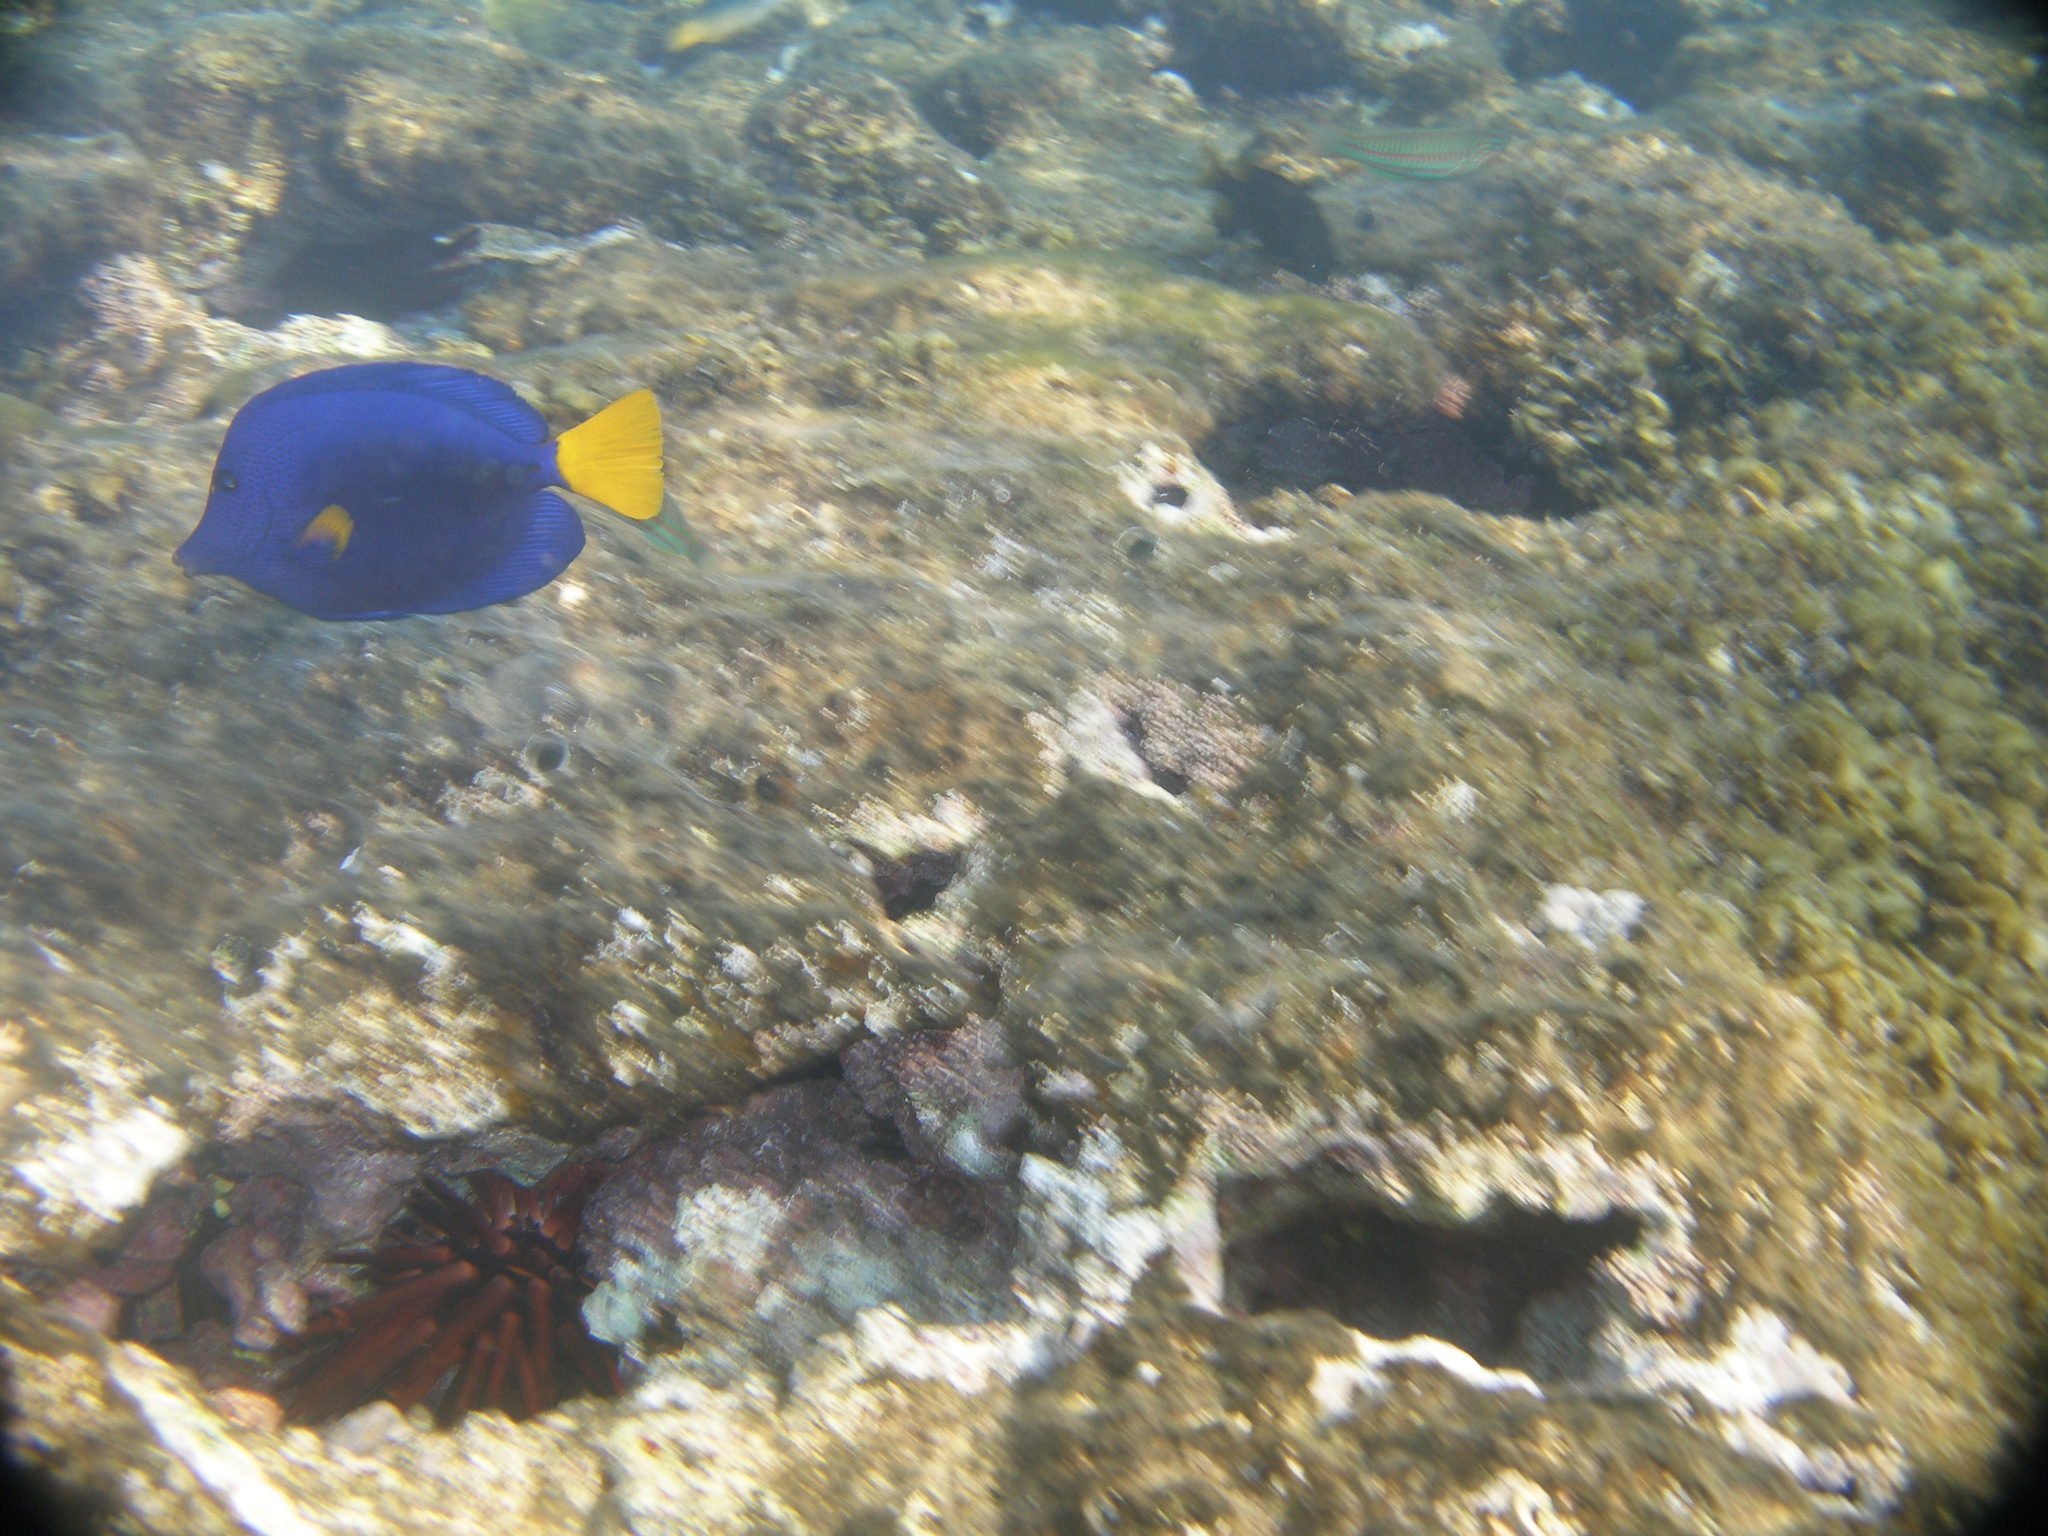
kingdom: Animalia
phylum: Chordata
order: Perciformes
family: Acanthuridae
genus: Zebrasoma
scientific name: Zebrasoma xanthurum
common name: Purple tang
